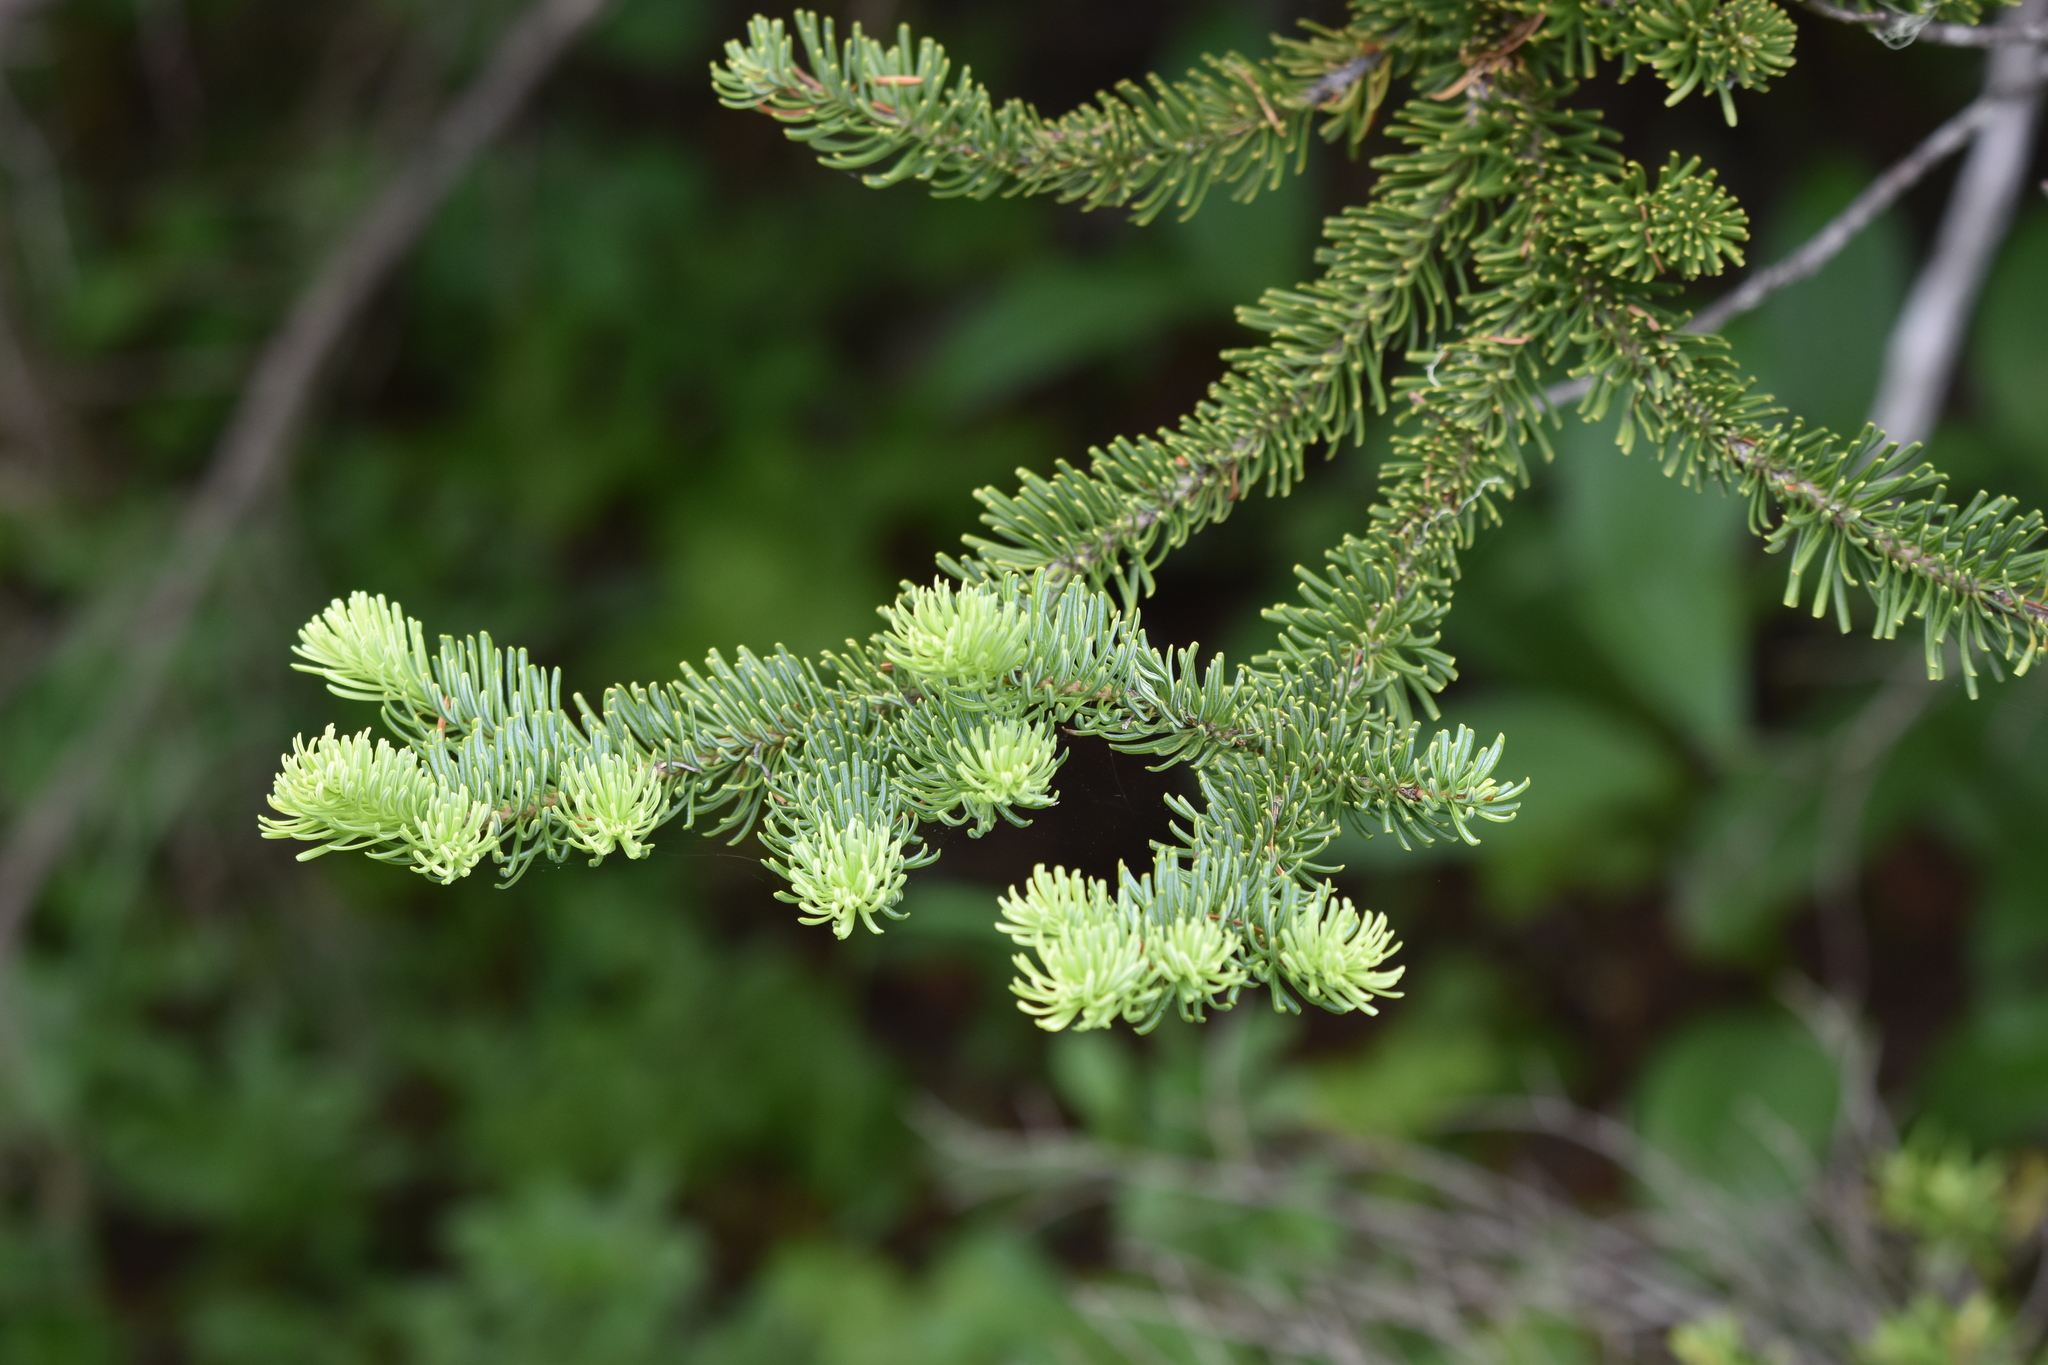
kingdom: Plantae
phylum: Tracheophyta
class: Pinopsida
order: Pinales
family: Pinaceae
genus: Abies
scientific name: Abies lasiocarpa
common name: Subalpine fir
